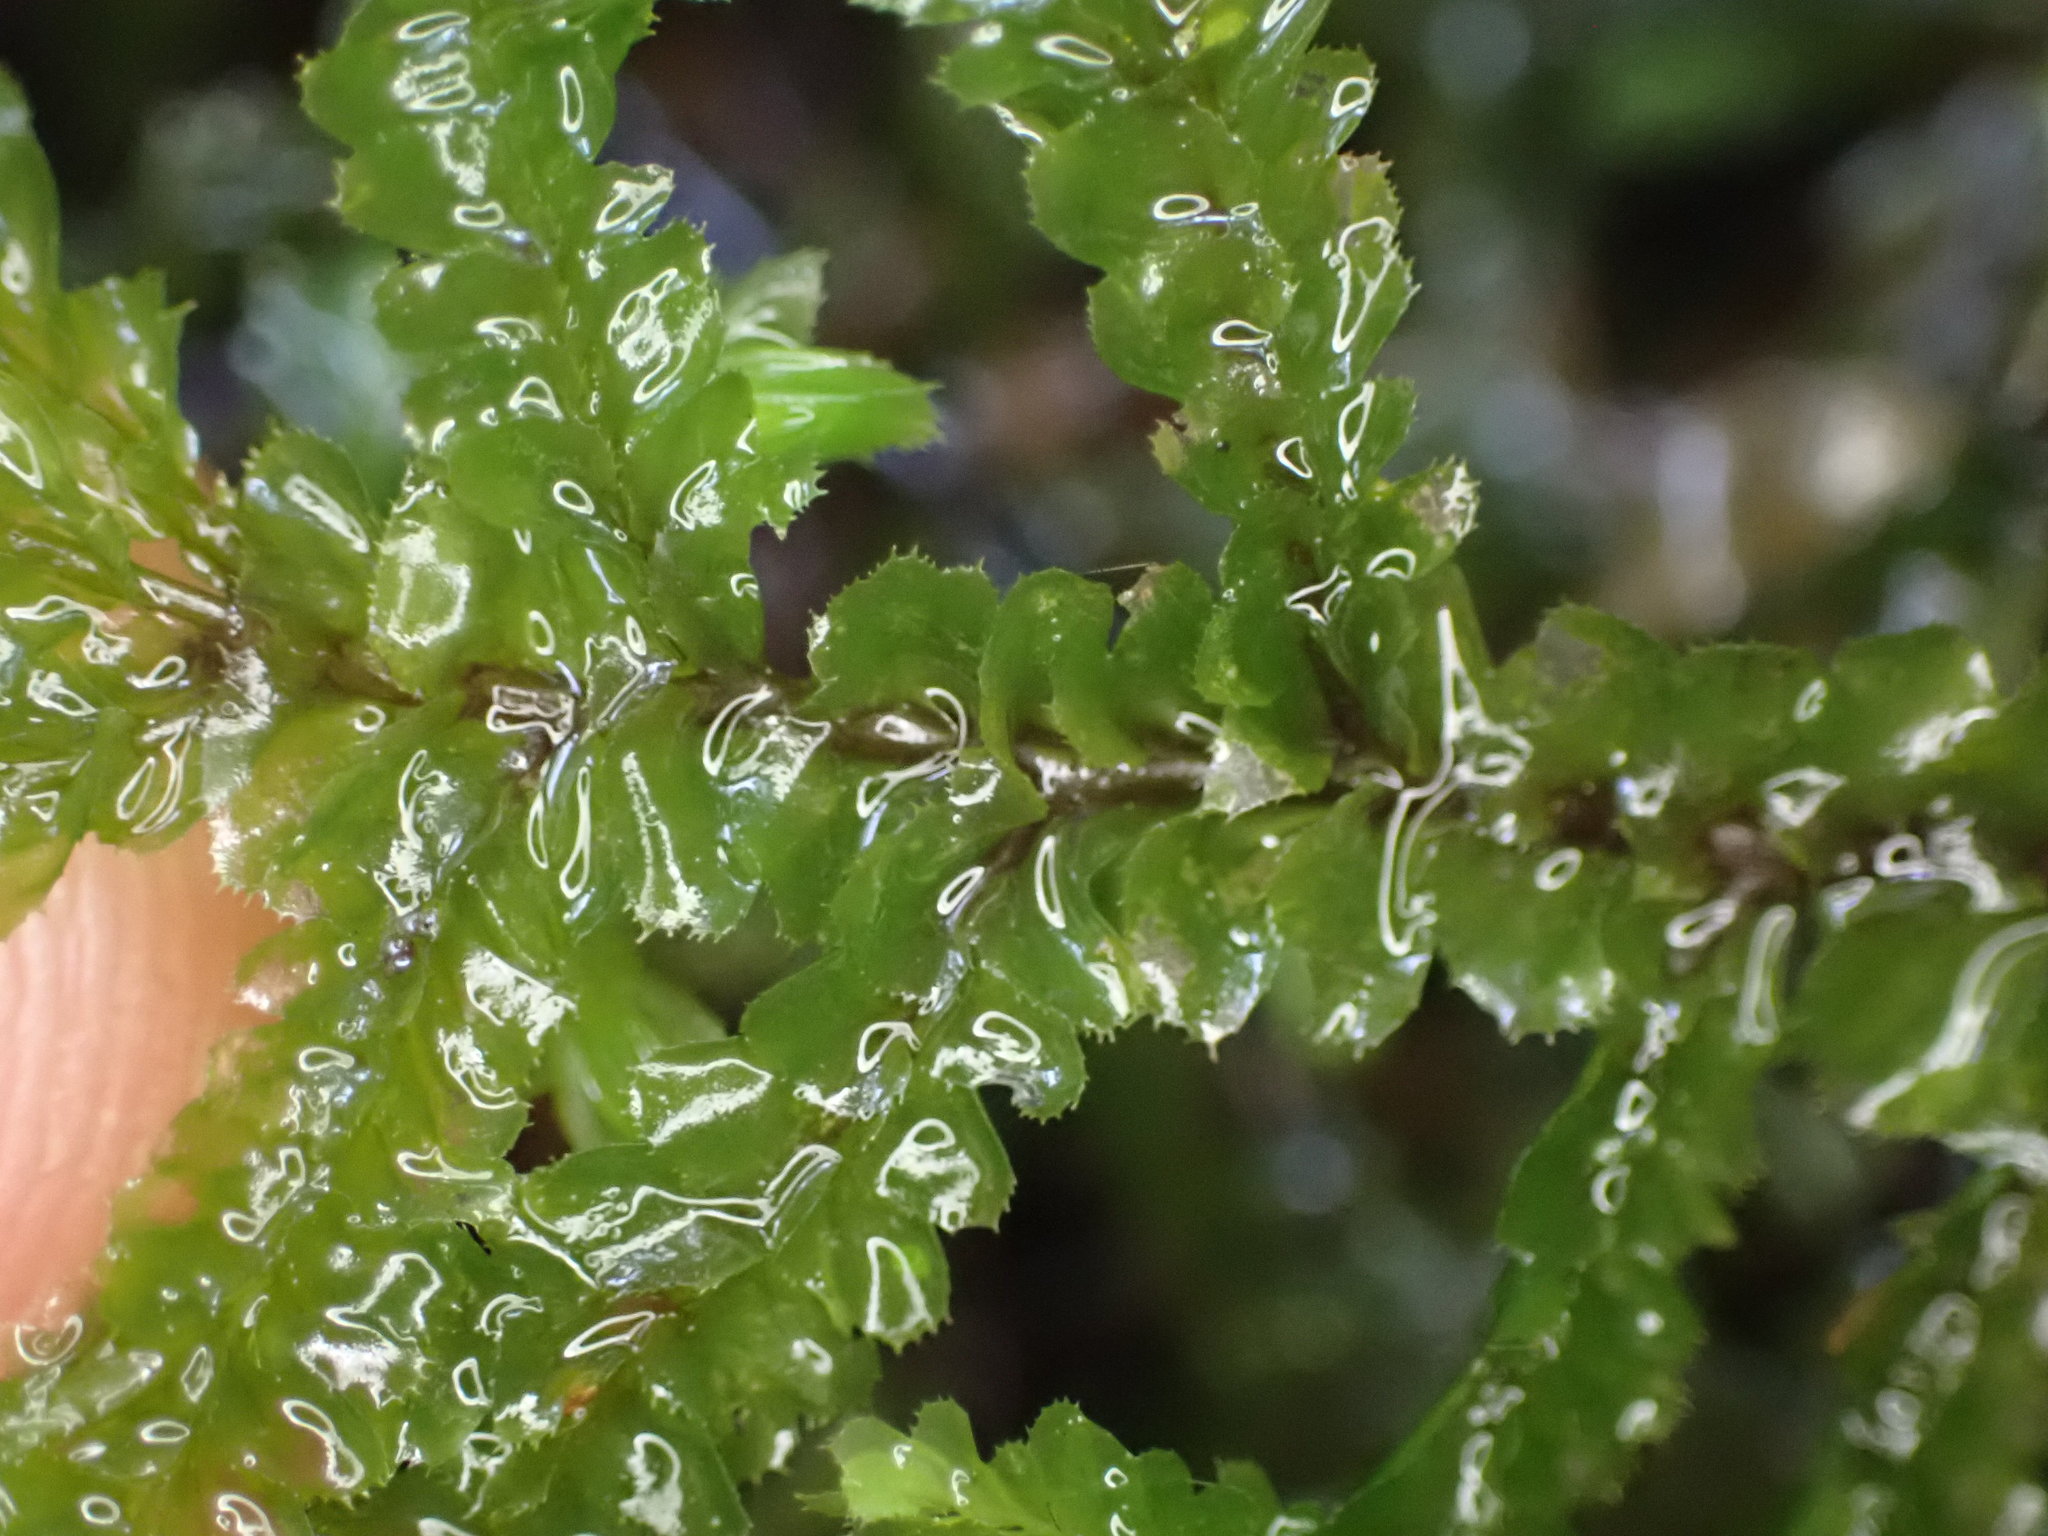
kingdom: Plantae
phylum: Marchantiophyta
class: Jungermanniopsida
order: Jungermanniales
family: Plagiochilaceae
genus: Plagiochila
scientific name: Plagiochila stephensoniana
